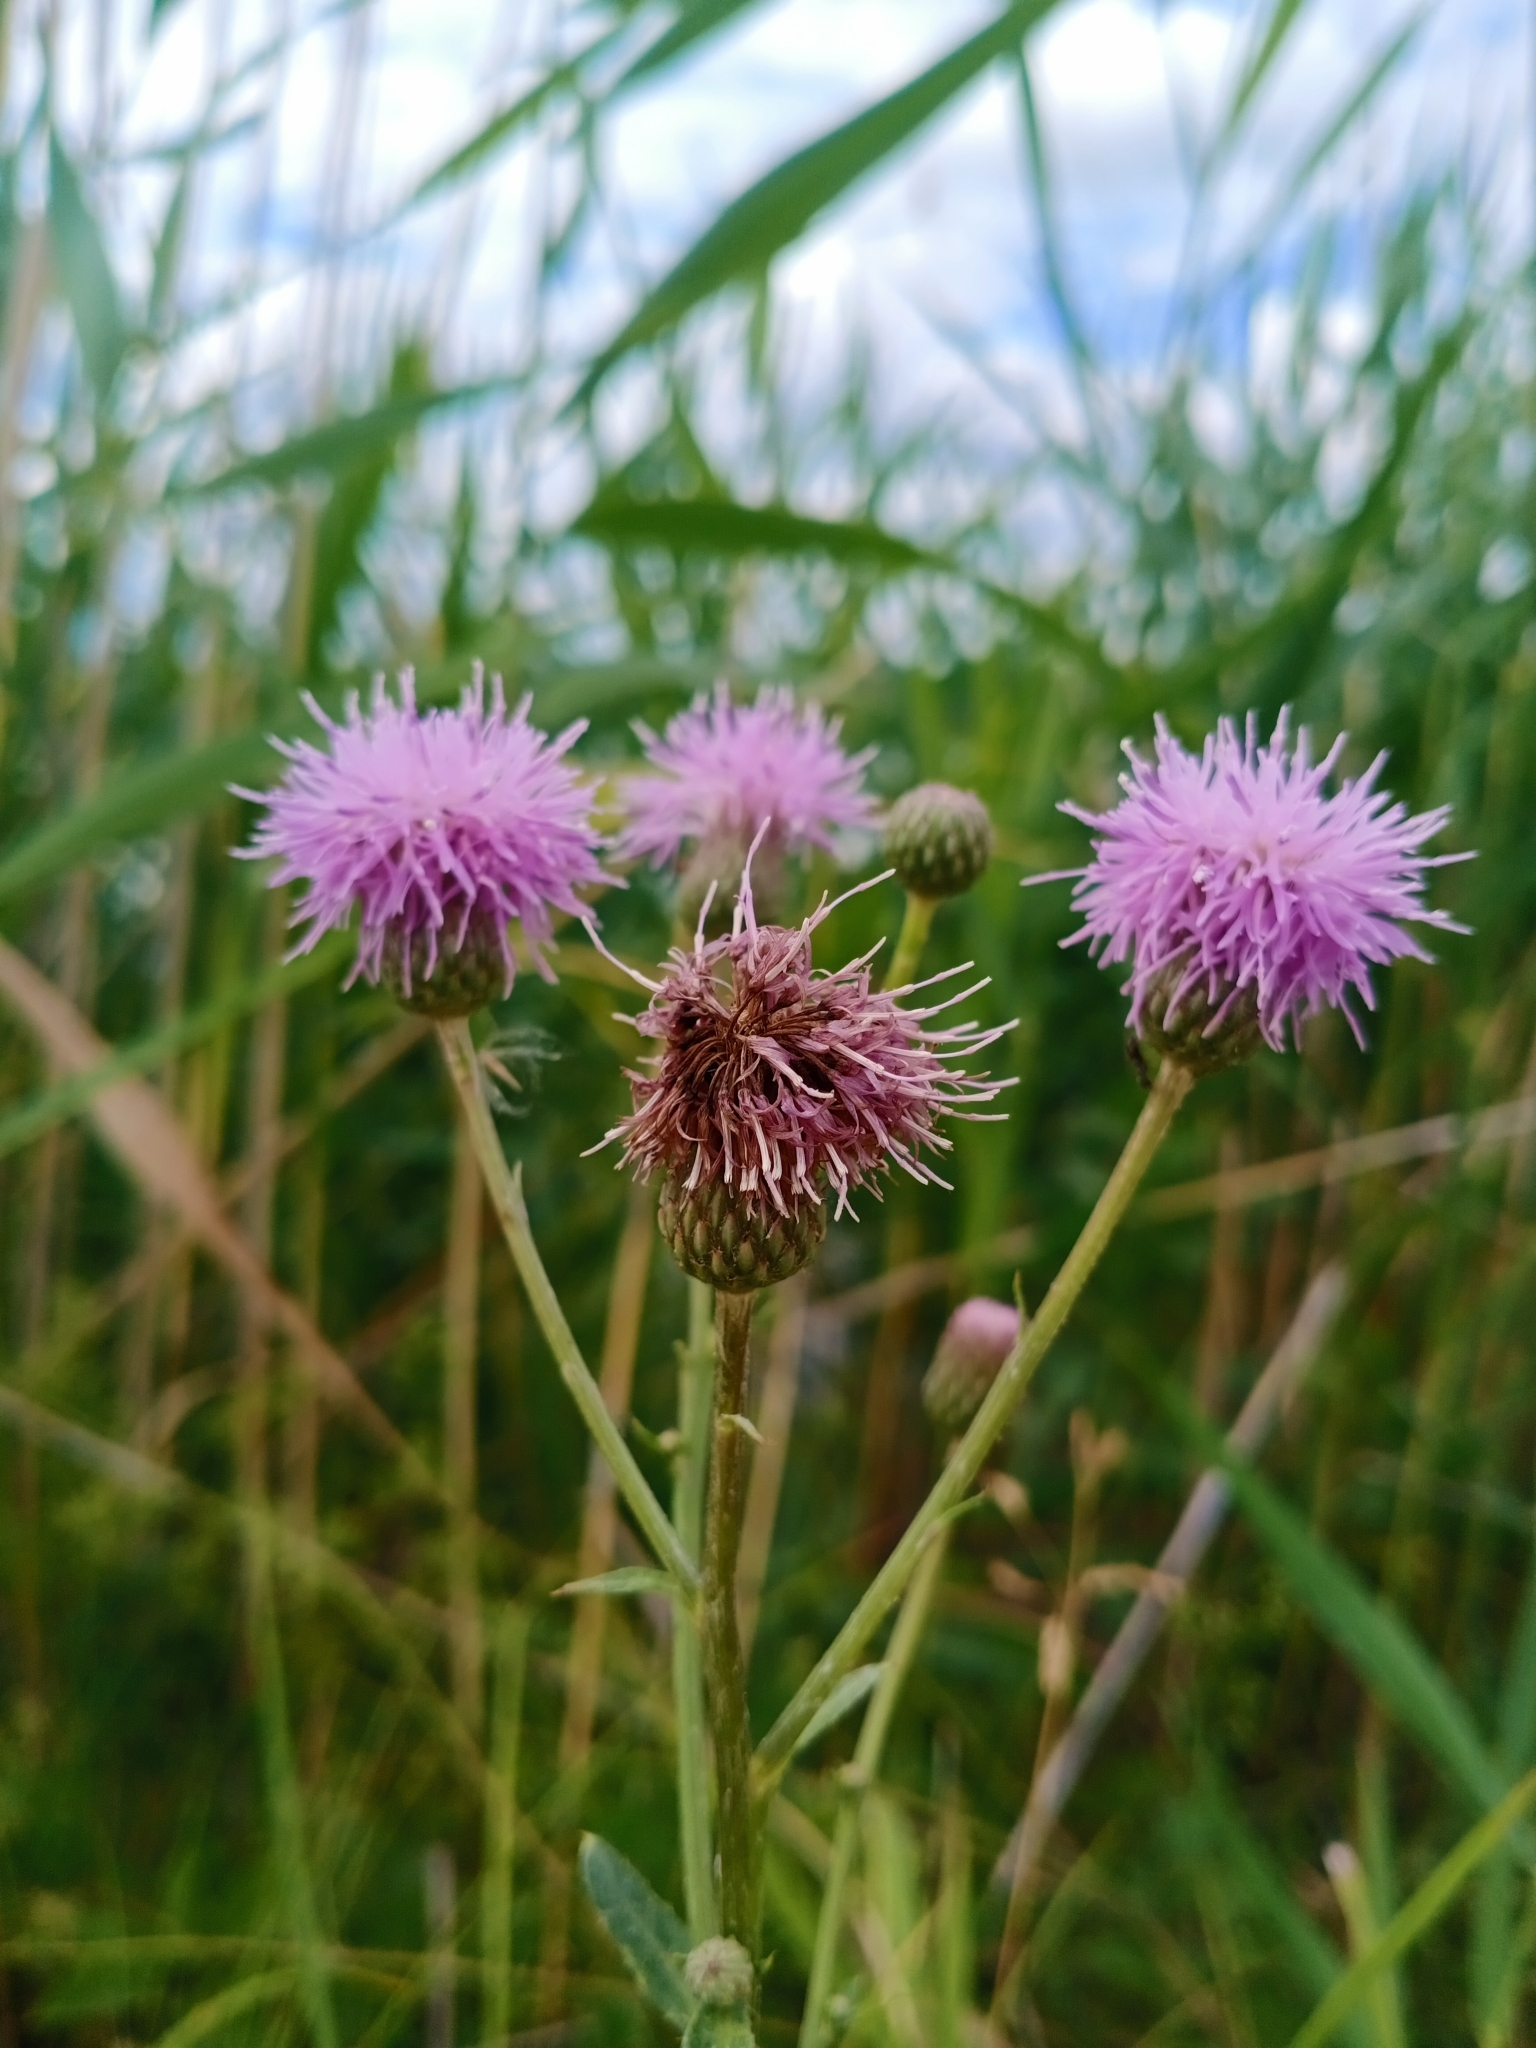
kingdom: Plantae
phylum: Tracheophyta
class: Magnoliopsida
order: Asterales
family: Asteraceae
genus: Cirsium
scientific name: Cirsium arvense
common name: Creeping thistle
